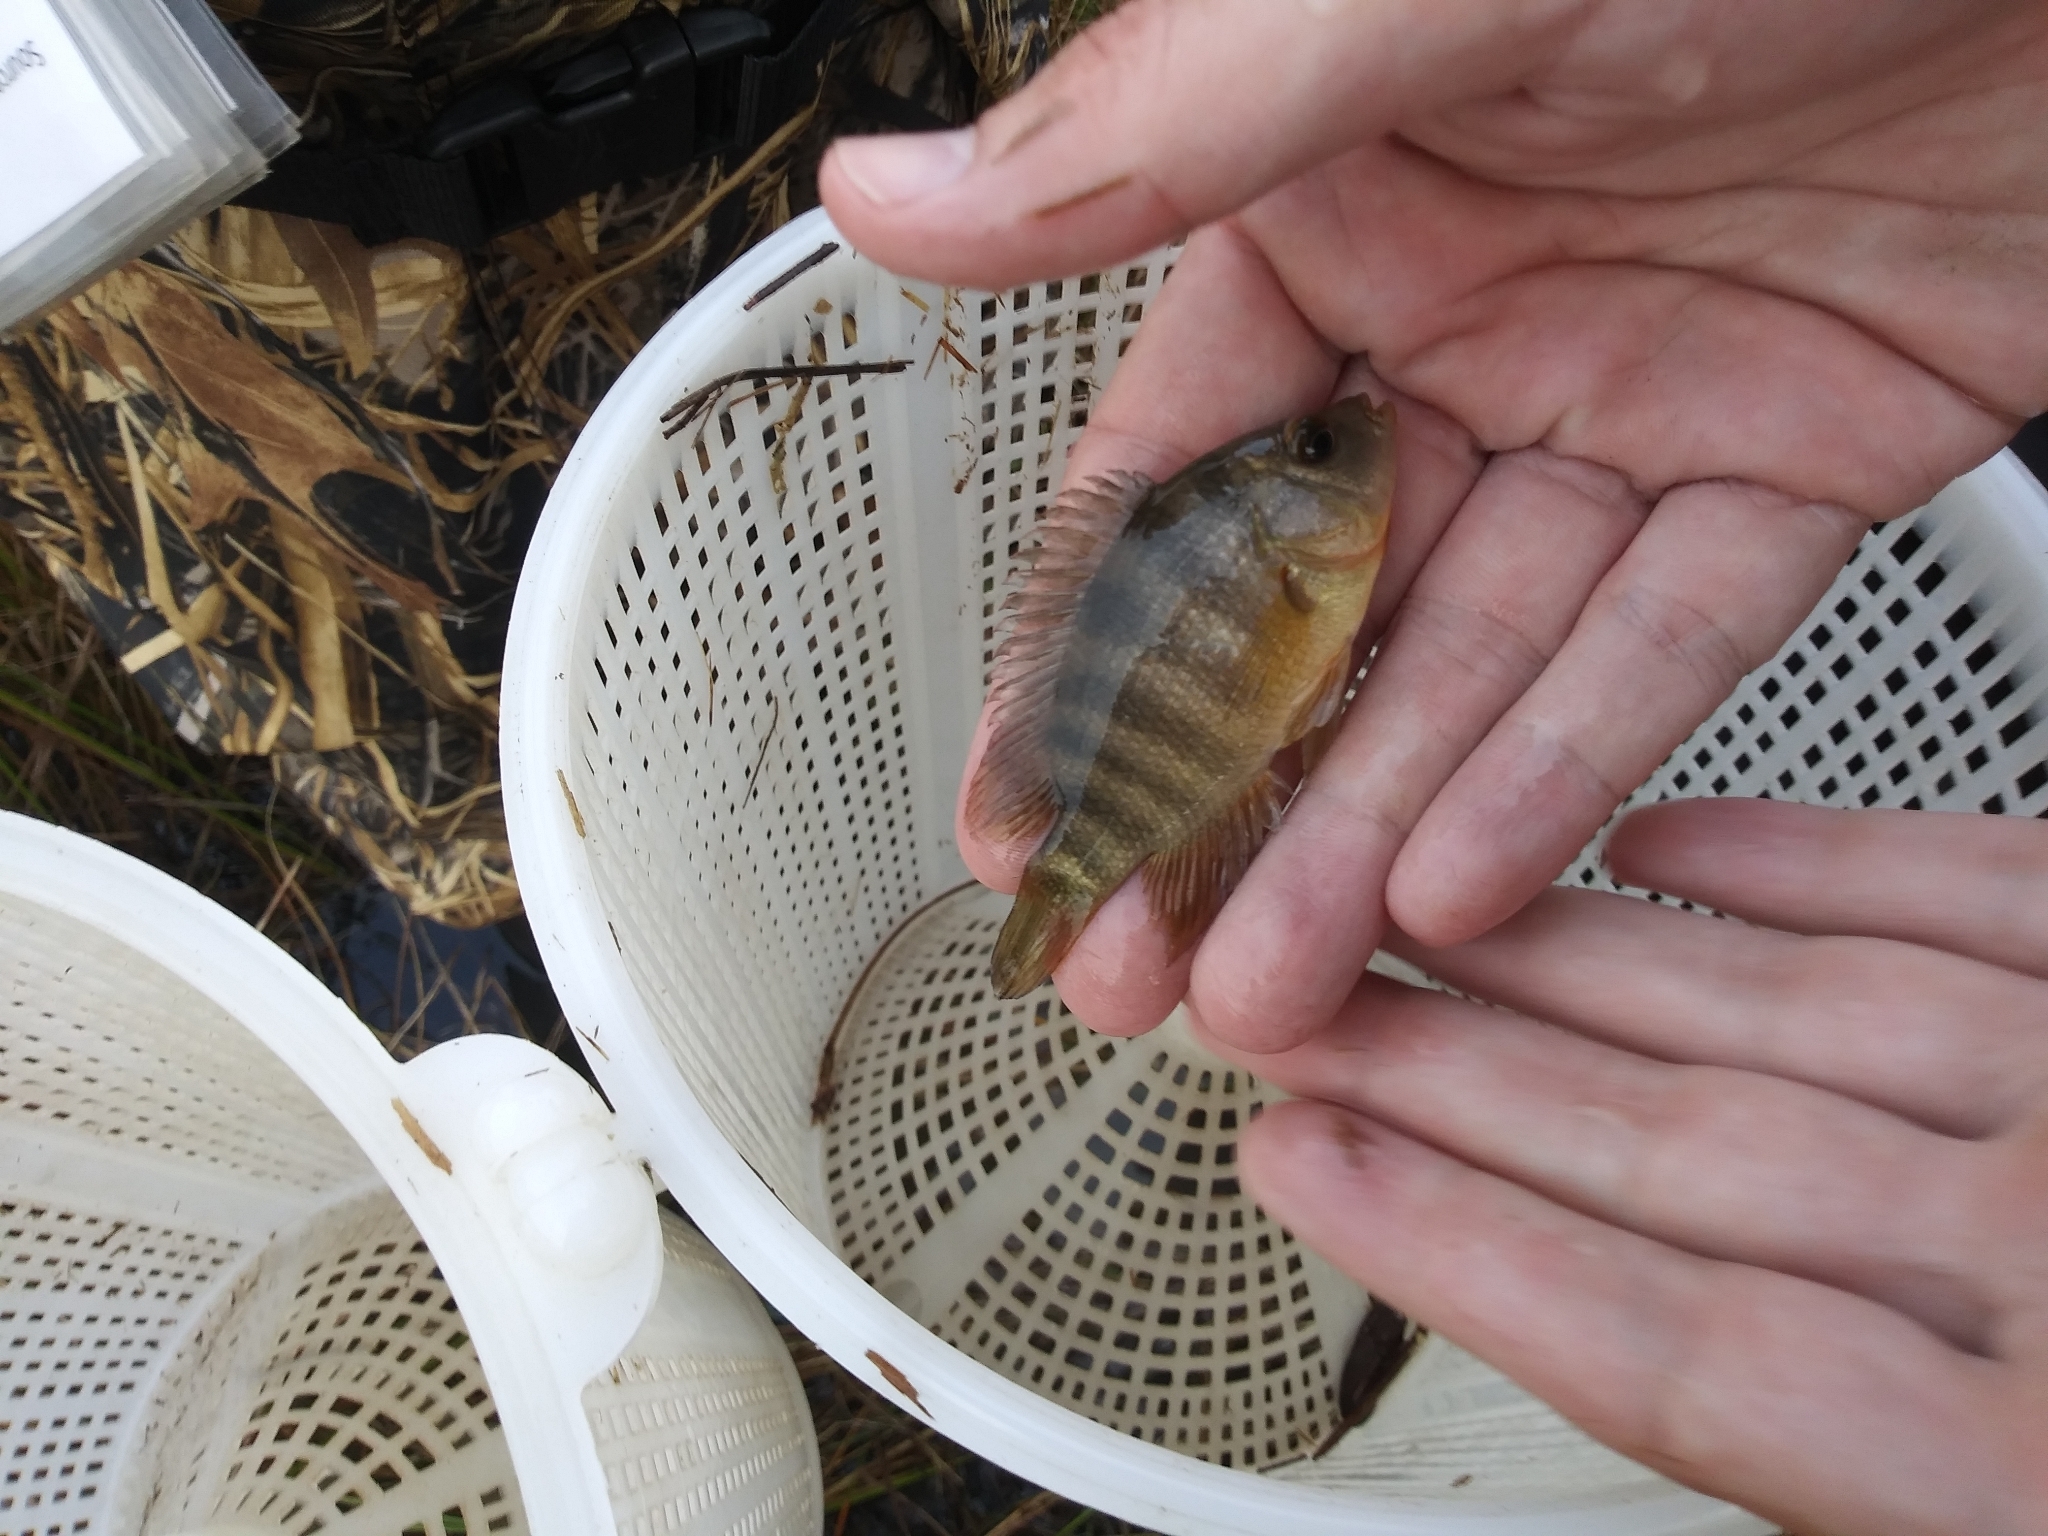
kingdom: Animalia
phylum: Chordata
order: Perciformes
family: Cichlidae
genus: Mayaheros
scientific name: Mayaheros urophthalmus
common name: Mayan cichlid
